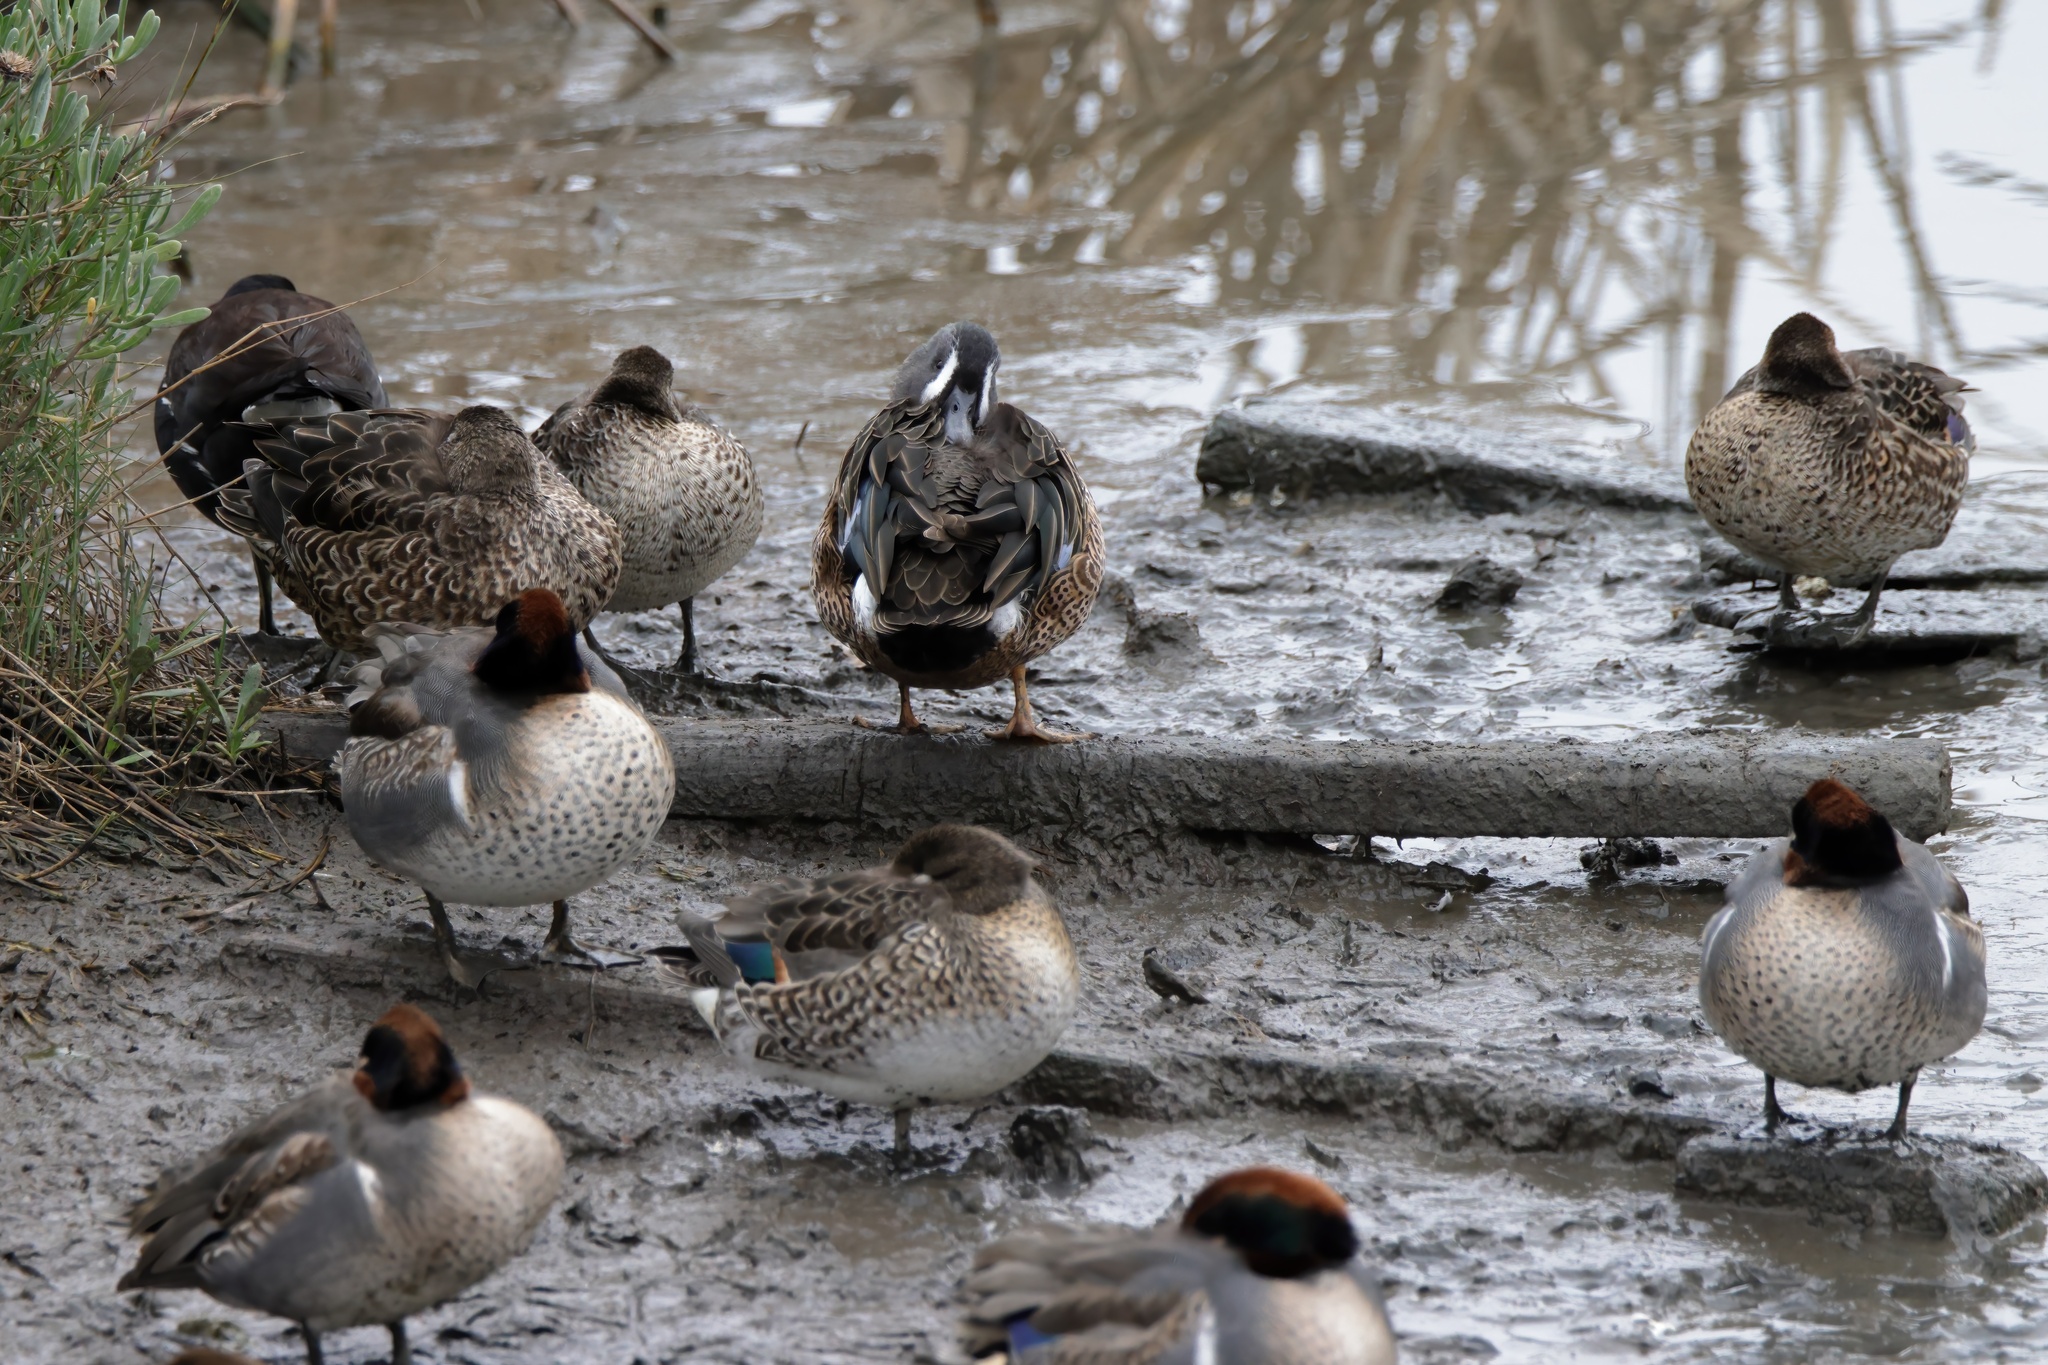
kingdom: Animalia
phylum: Chordata
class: Aves
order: Anseriformes
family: Anatidae
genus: Spatula
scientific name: Spatula discors
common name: Blue-winged teal
